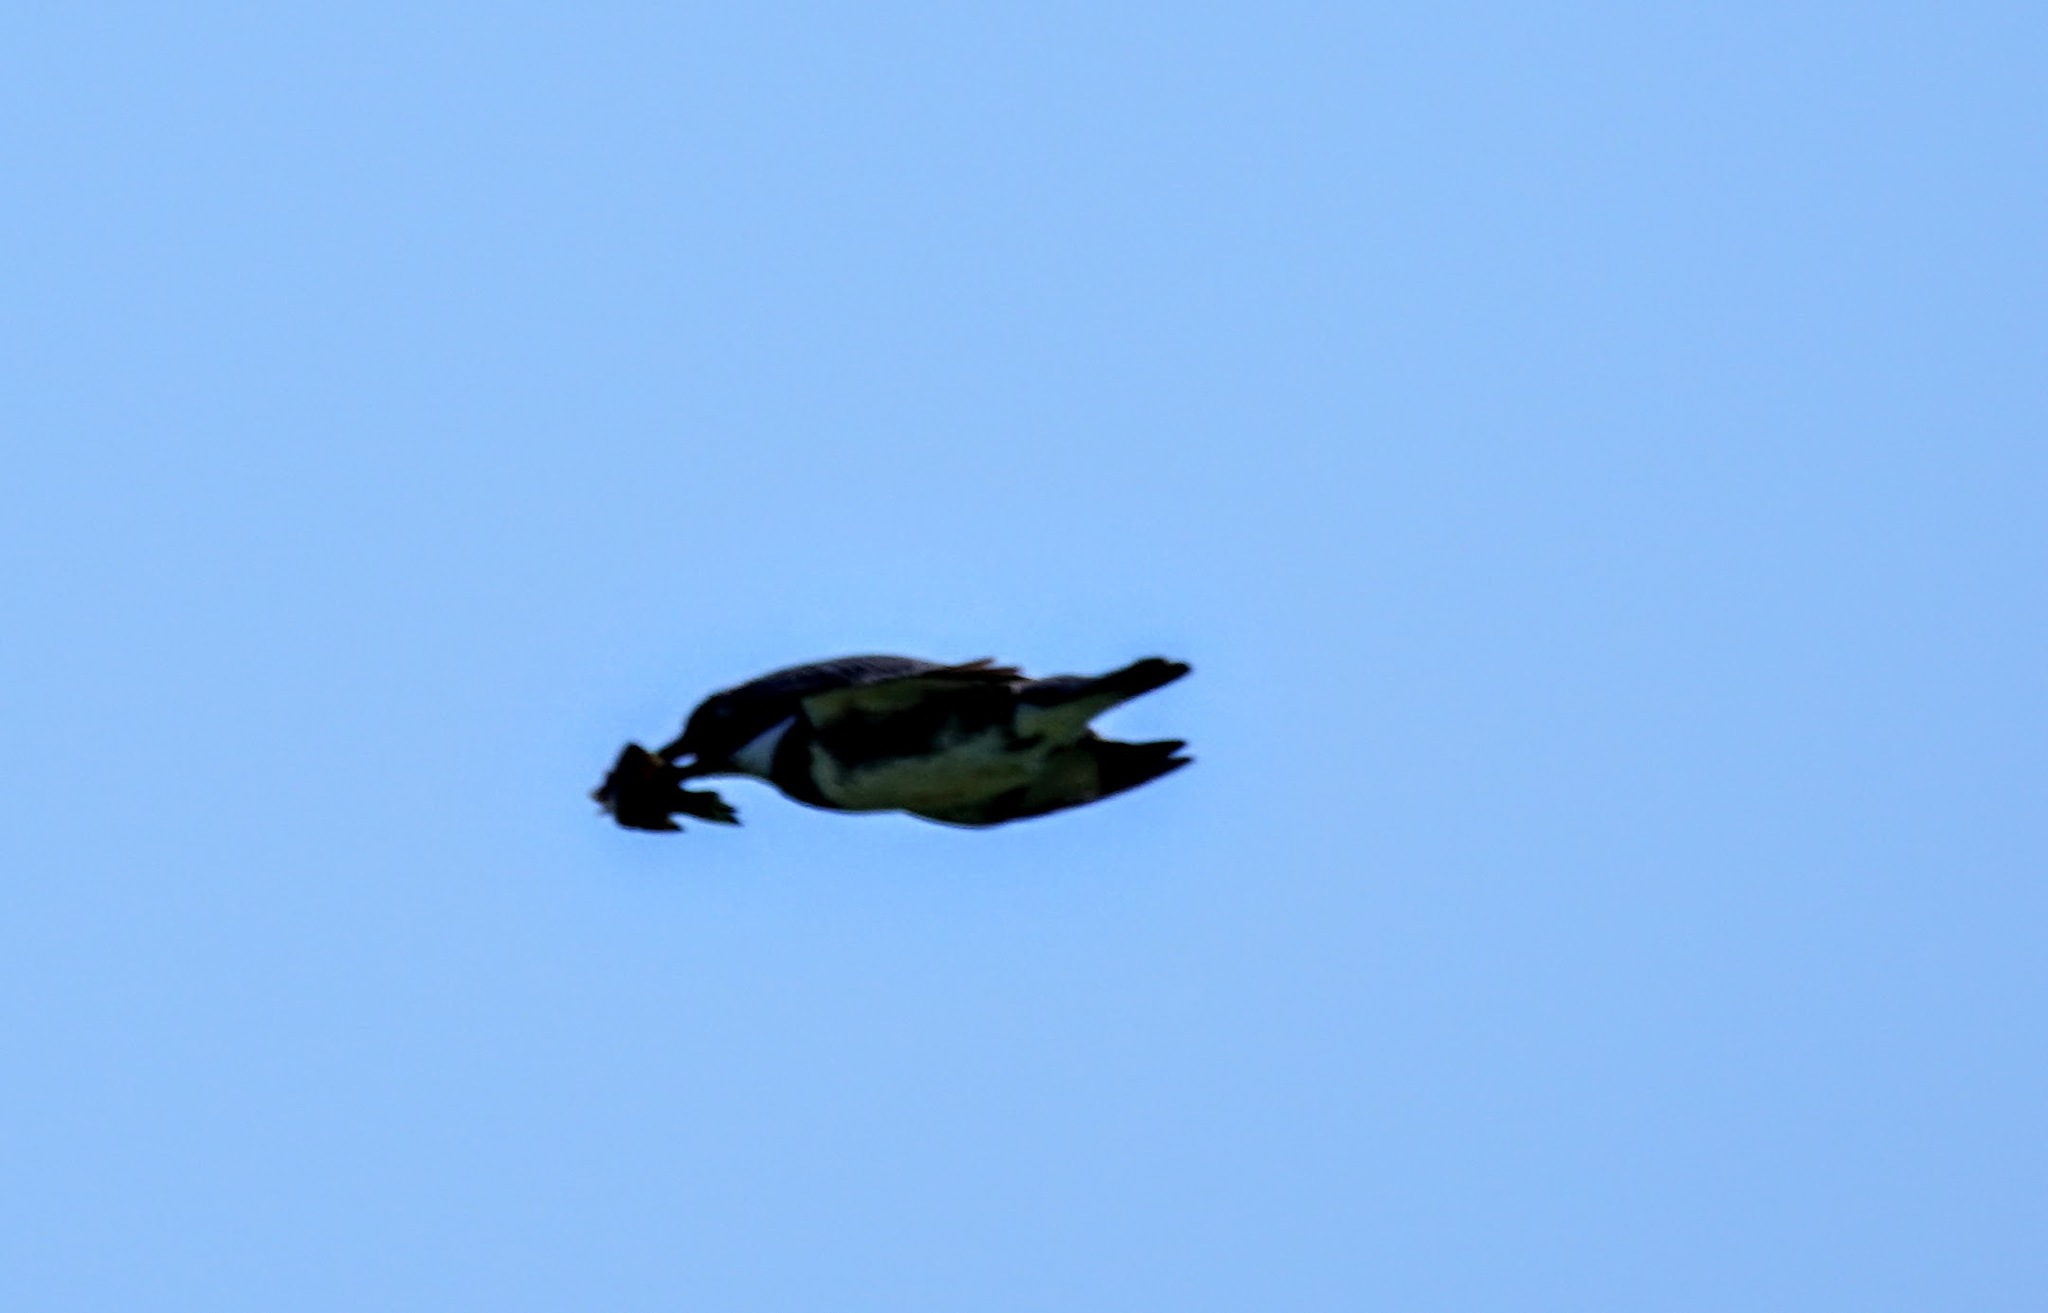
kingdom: Animalia
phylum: Chordata
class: Aves
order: Coraciiformes
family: Alcedinidae
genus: Megaceryle
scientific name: Megaceryle alcyon
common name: Belted kingfisher
